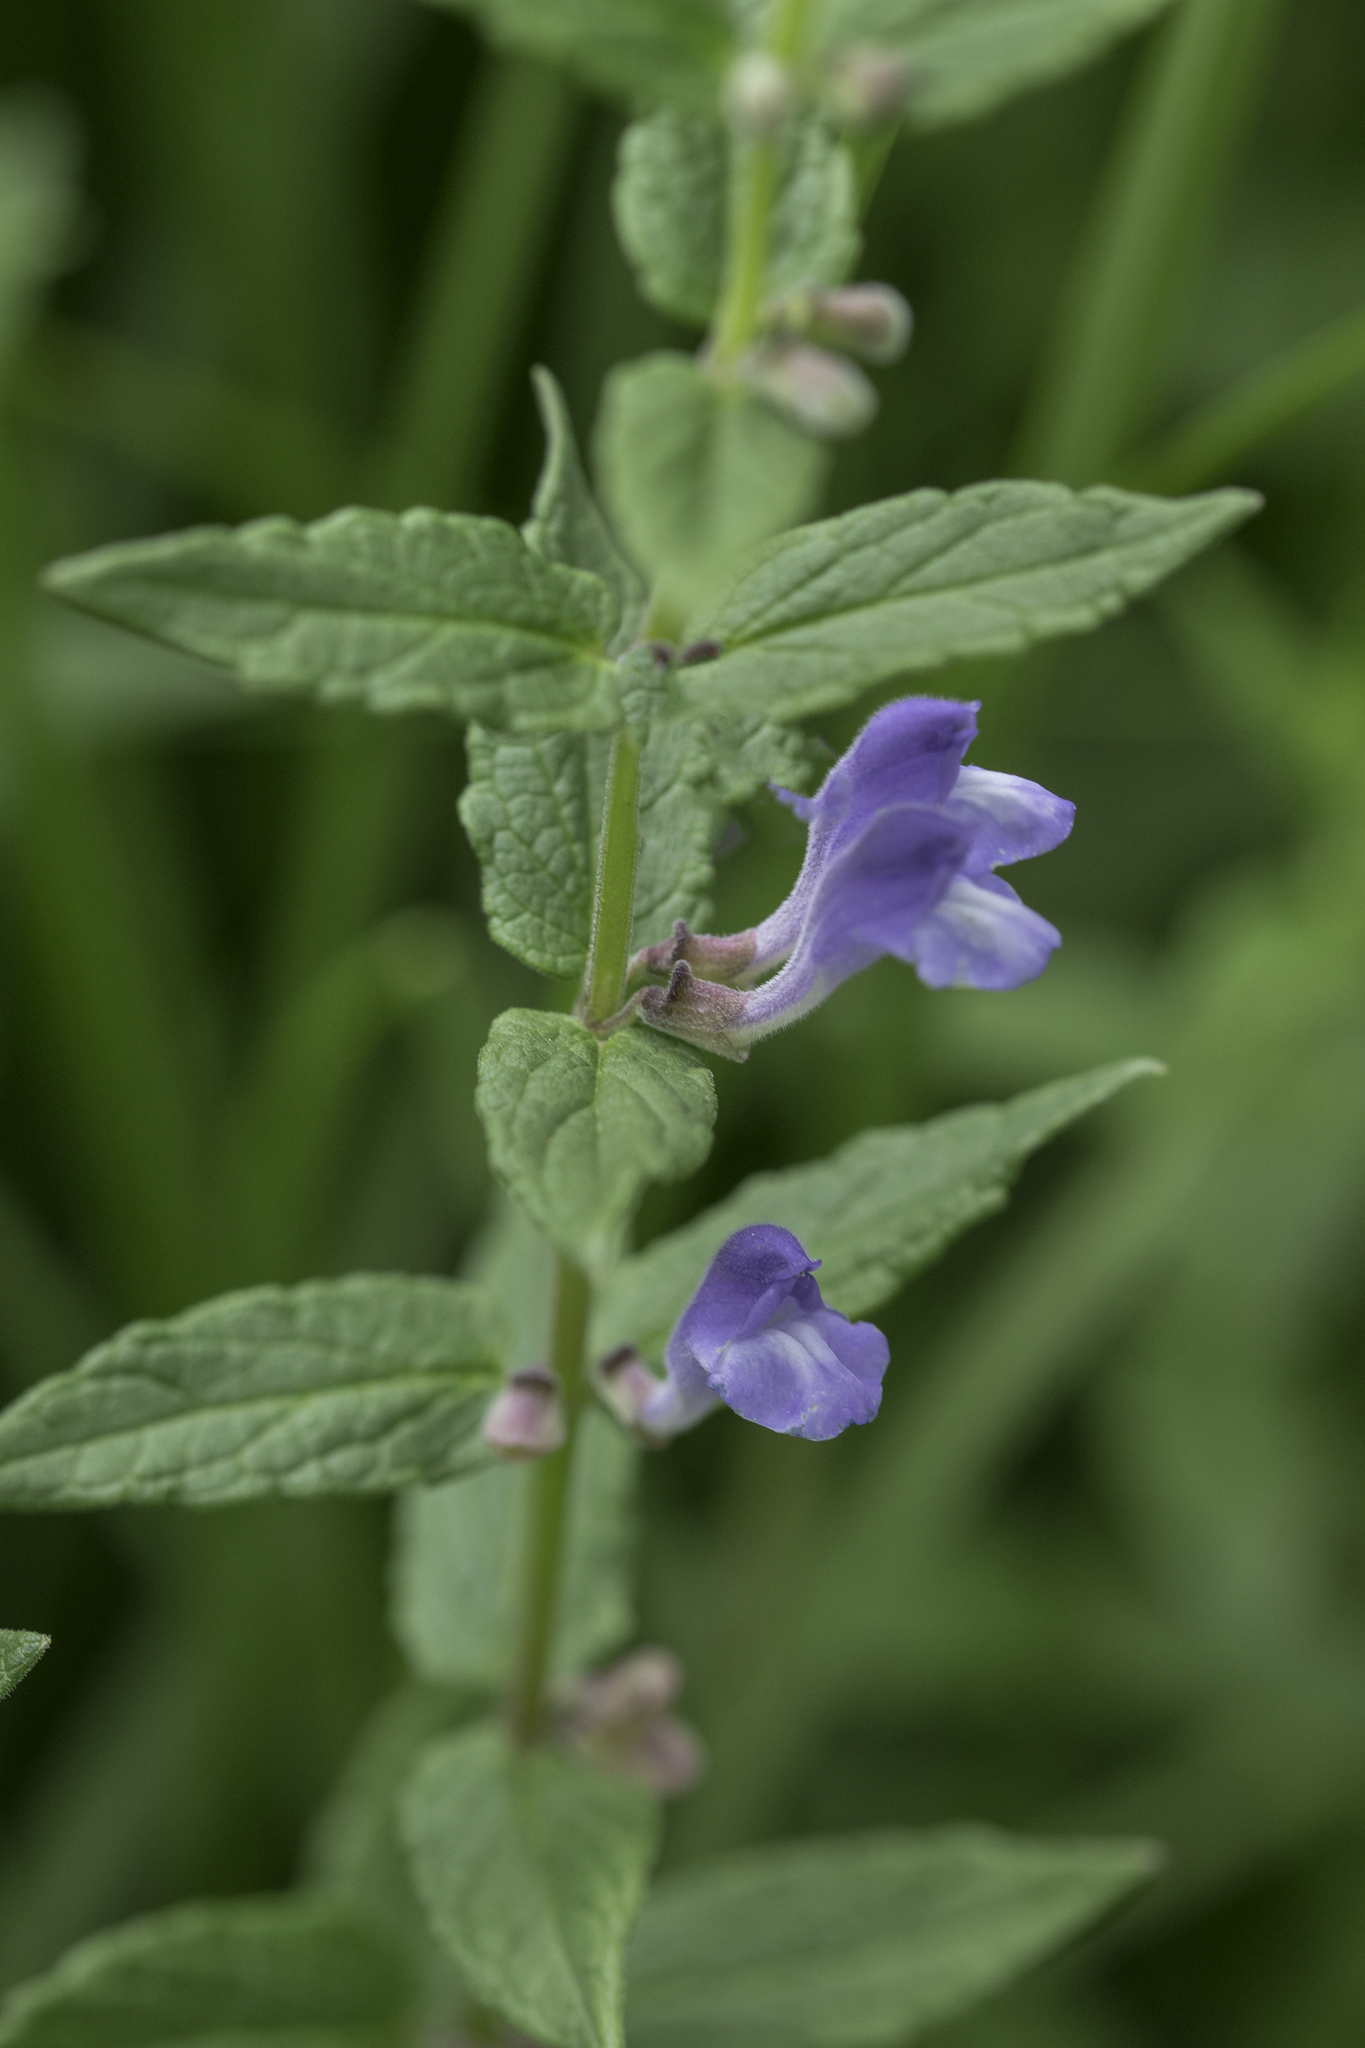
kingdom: Plantae
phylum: Tracheophyta
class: Magnoliopsida
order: Lamiales
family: Lamiaceae
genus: Scutellaria
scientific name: Scutellaria galericulata
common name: Skullcap
